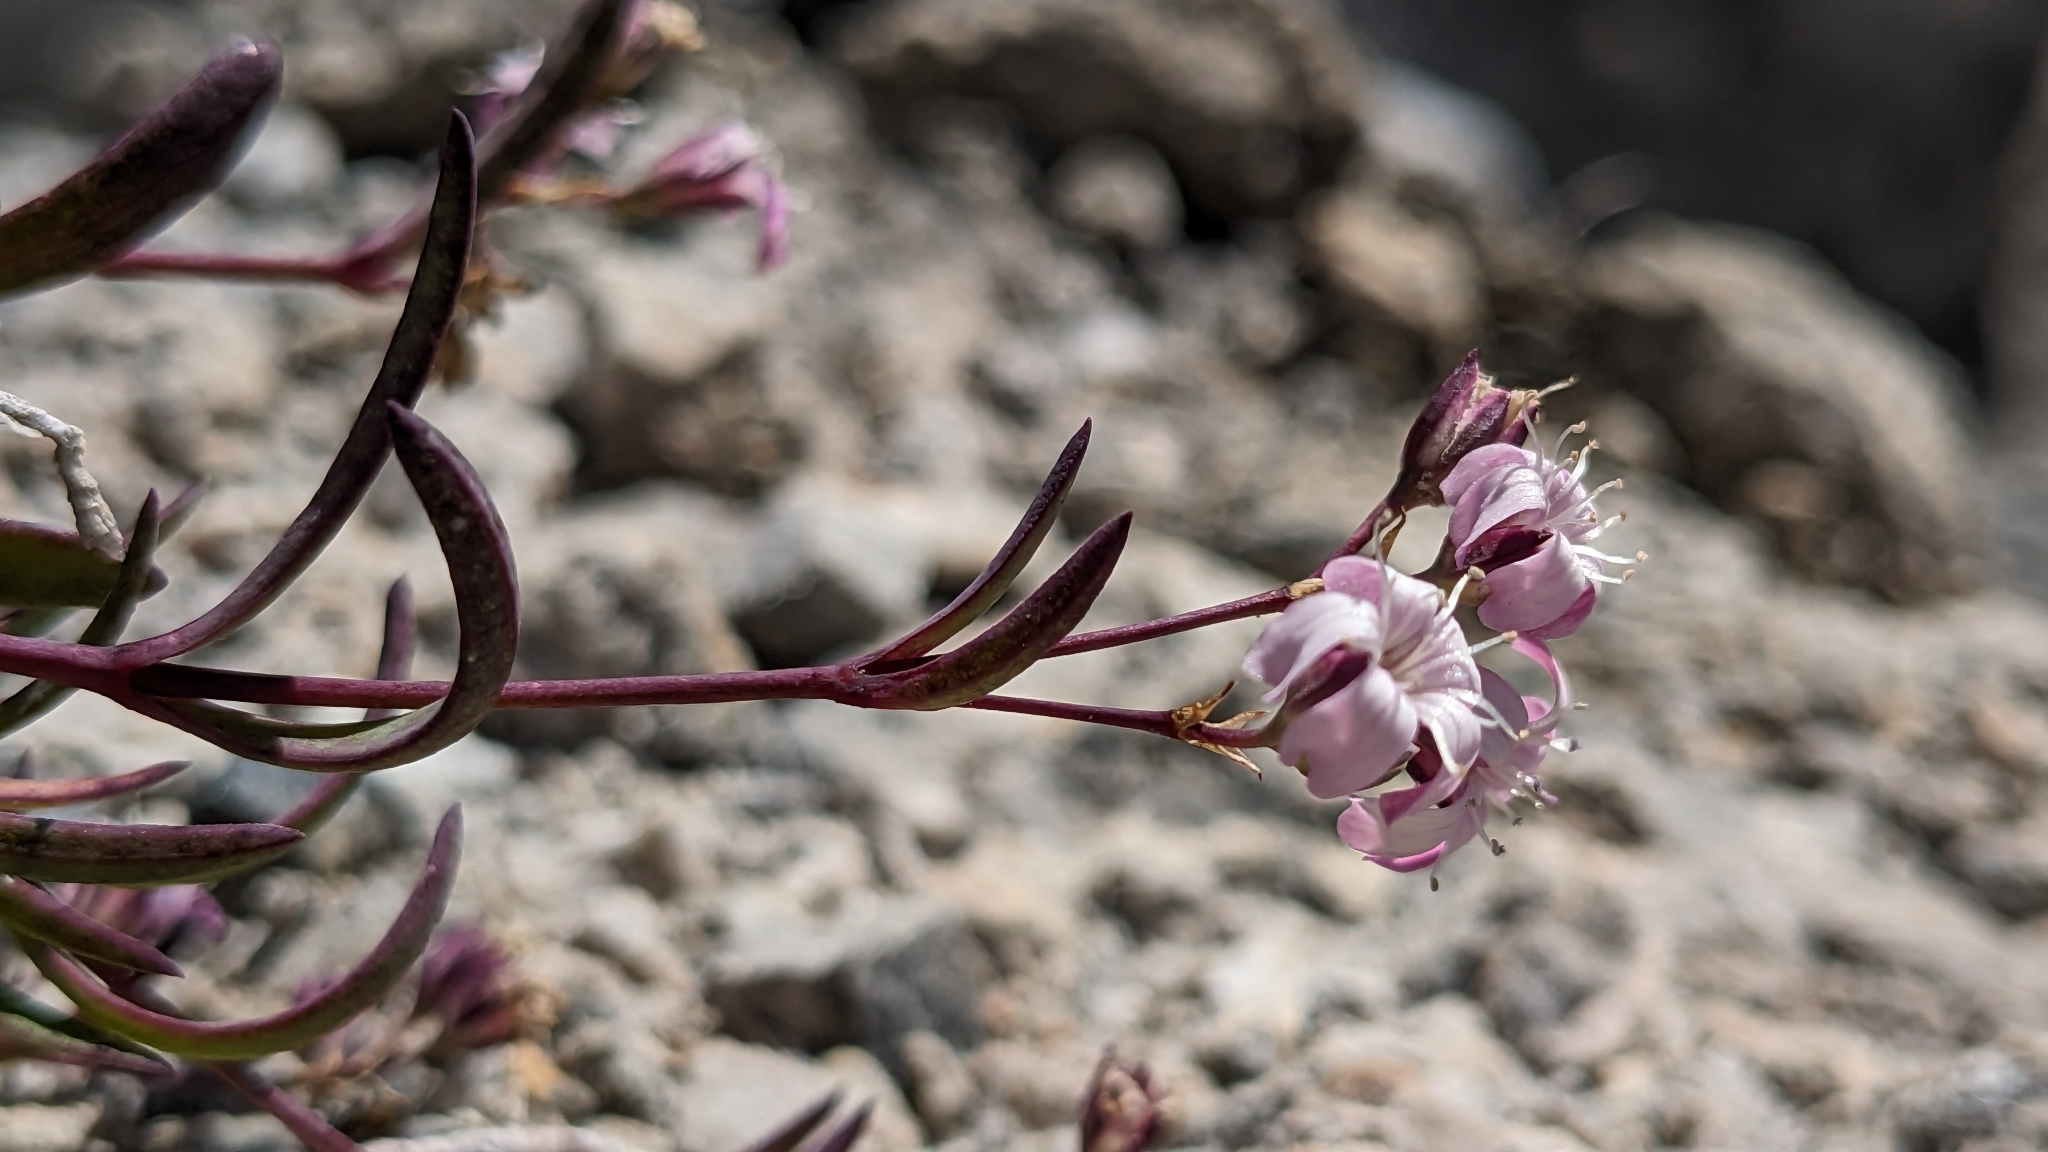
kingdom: Plantae
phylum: Tracheophyta
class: Magnoliopsida
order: Caryophyllales
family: Caryophyllaceae
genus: Gypsophila
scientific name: Gypsophila repens
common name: Creeping baby's-breath
